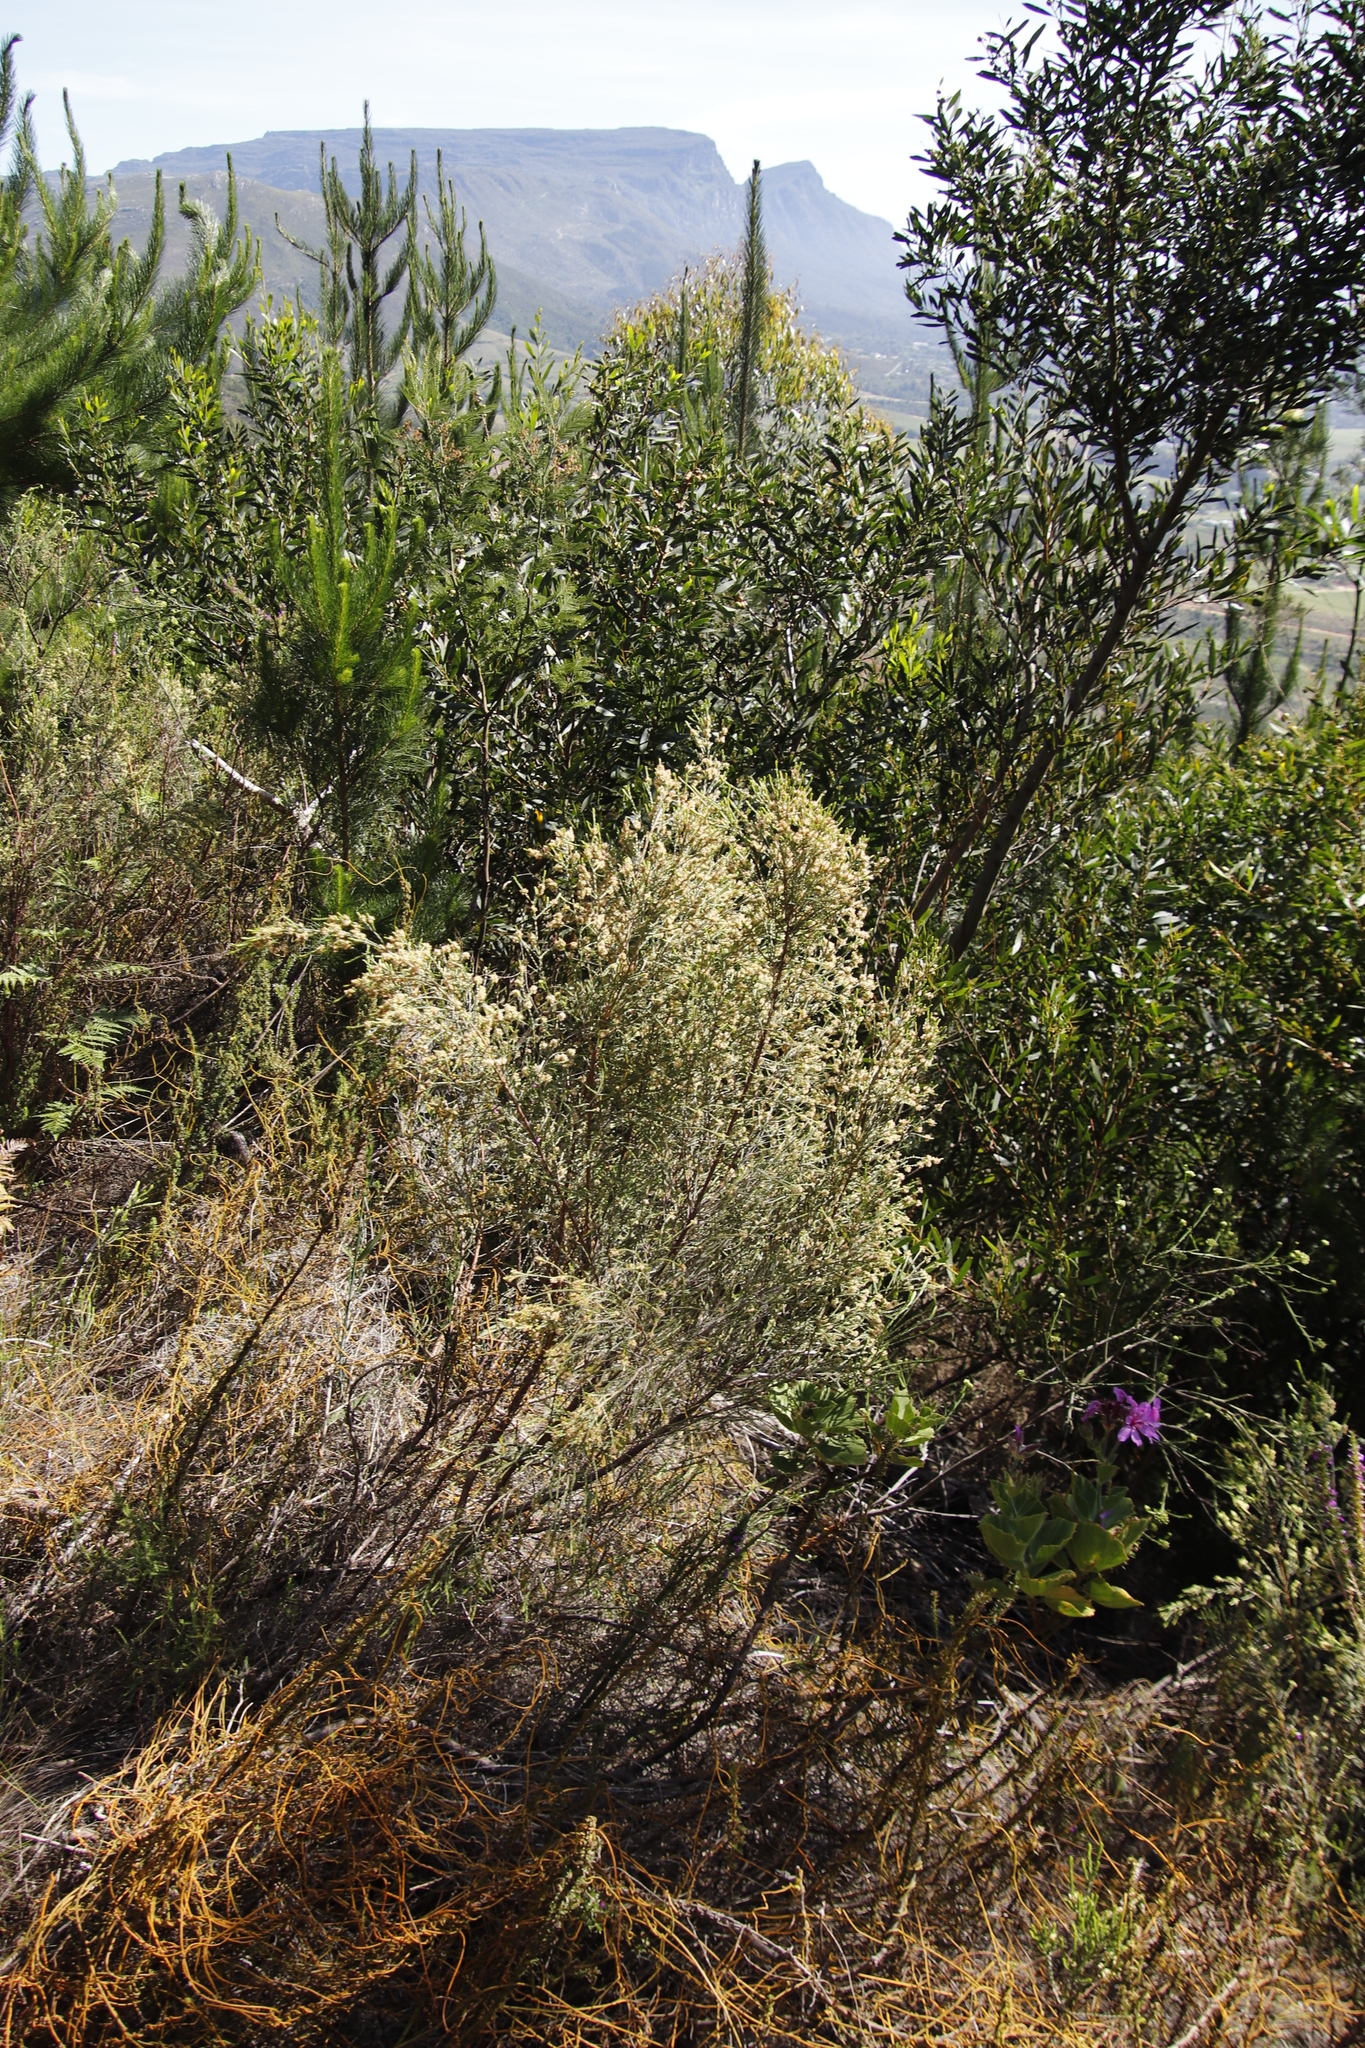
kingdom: Plantae
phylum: Tracheophyta
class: Magnoliopsida
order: Malvales
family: Thymelaeaceae
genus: Passerina
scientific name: Passerina corymbosa
